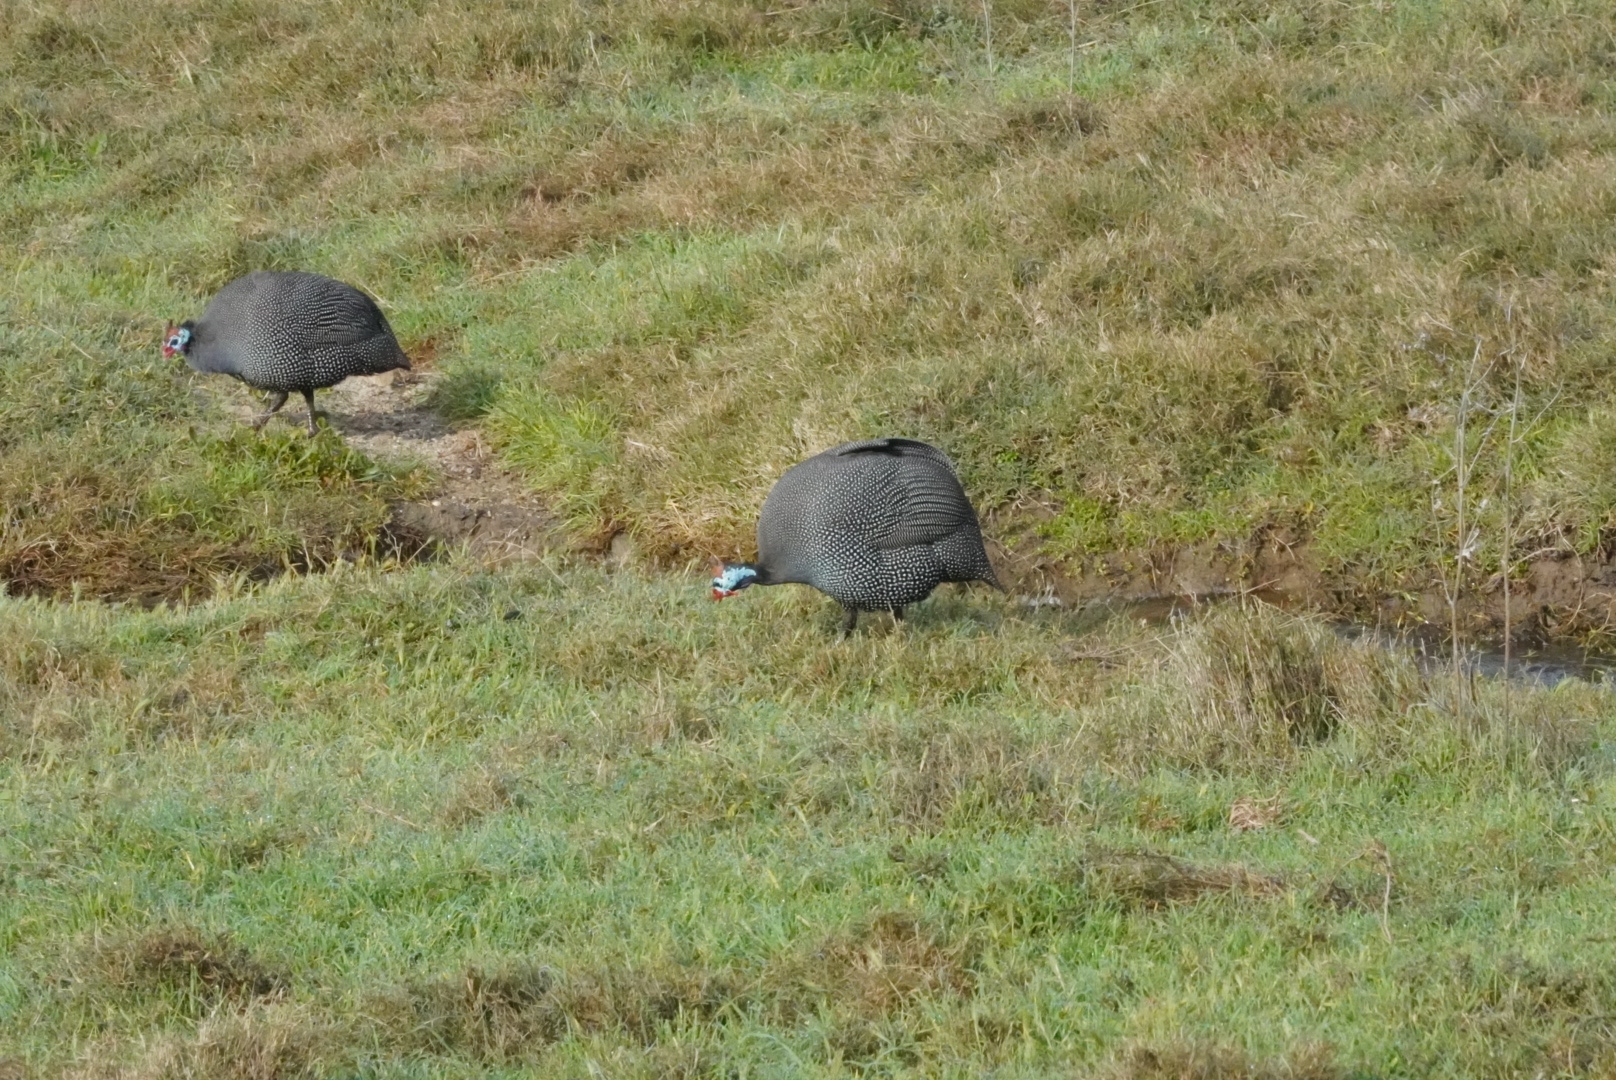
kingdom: Animalia
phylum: Chordata
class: Aves
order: Galliformes
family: Numididae
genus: Numida
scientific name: Numida meleagris
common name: Helmeted guineafowl
